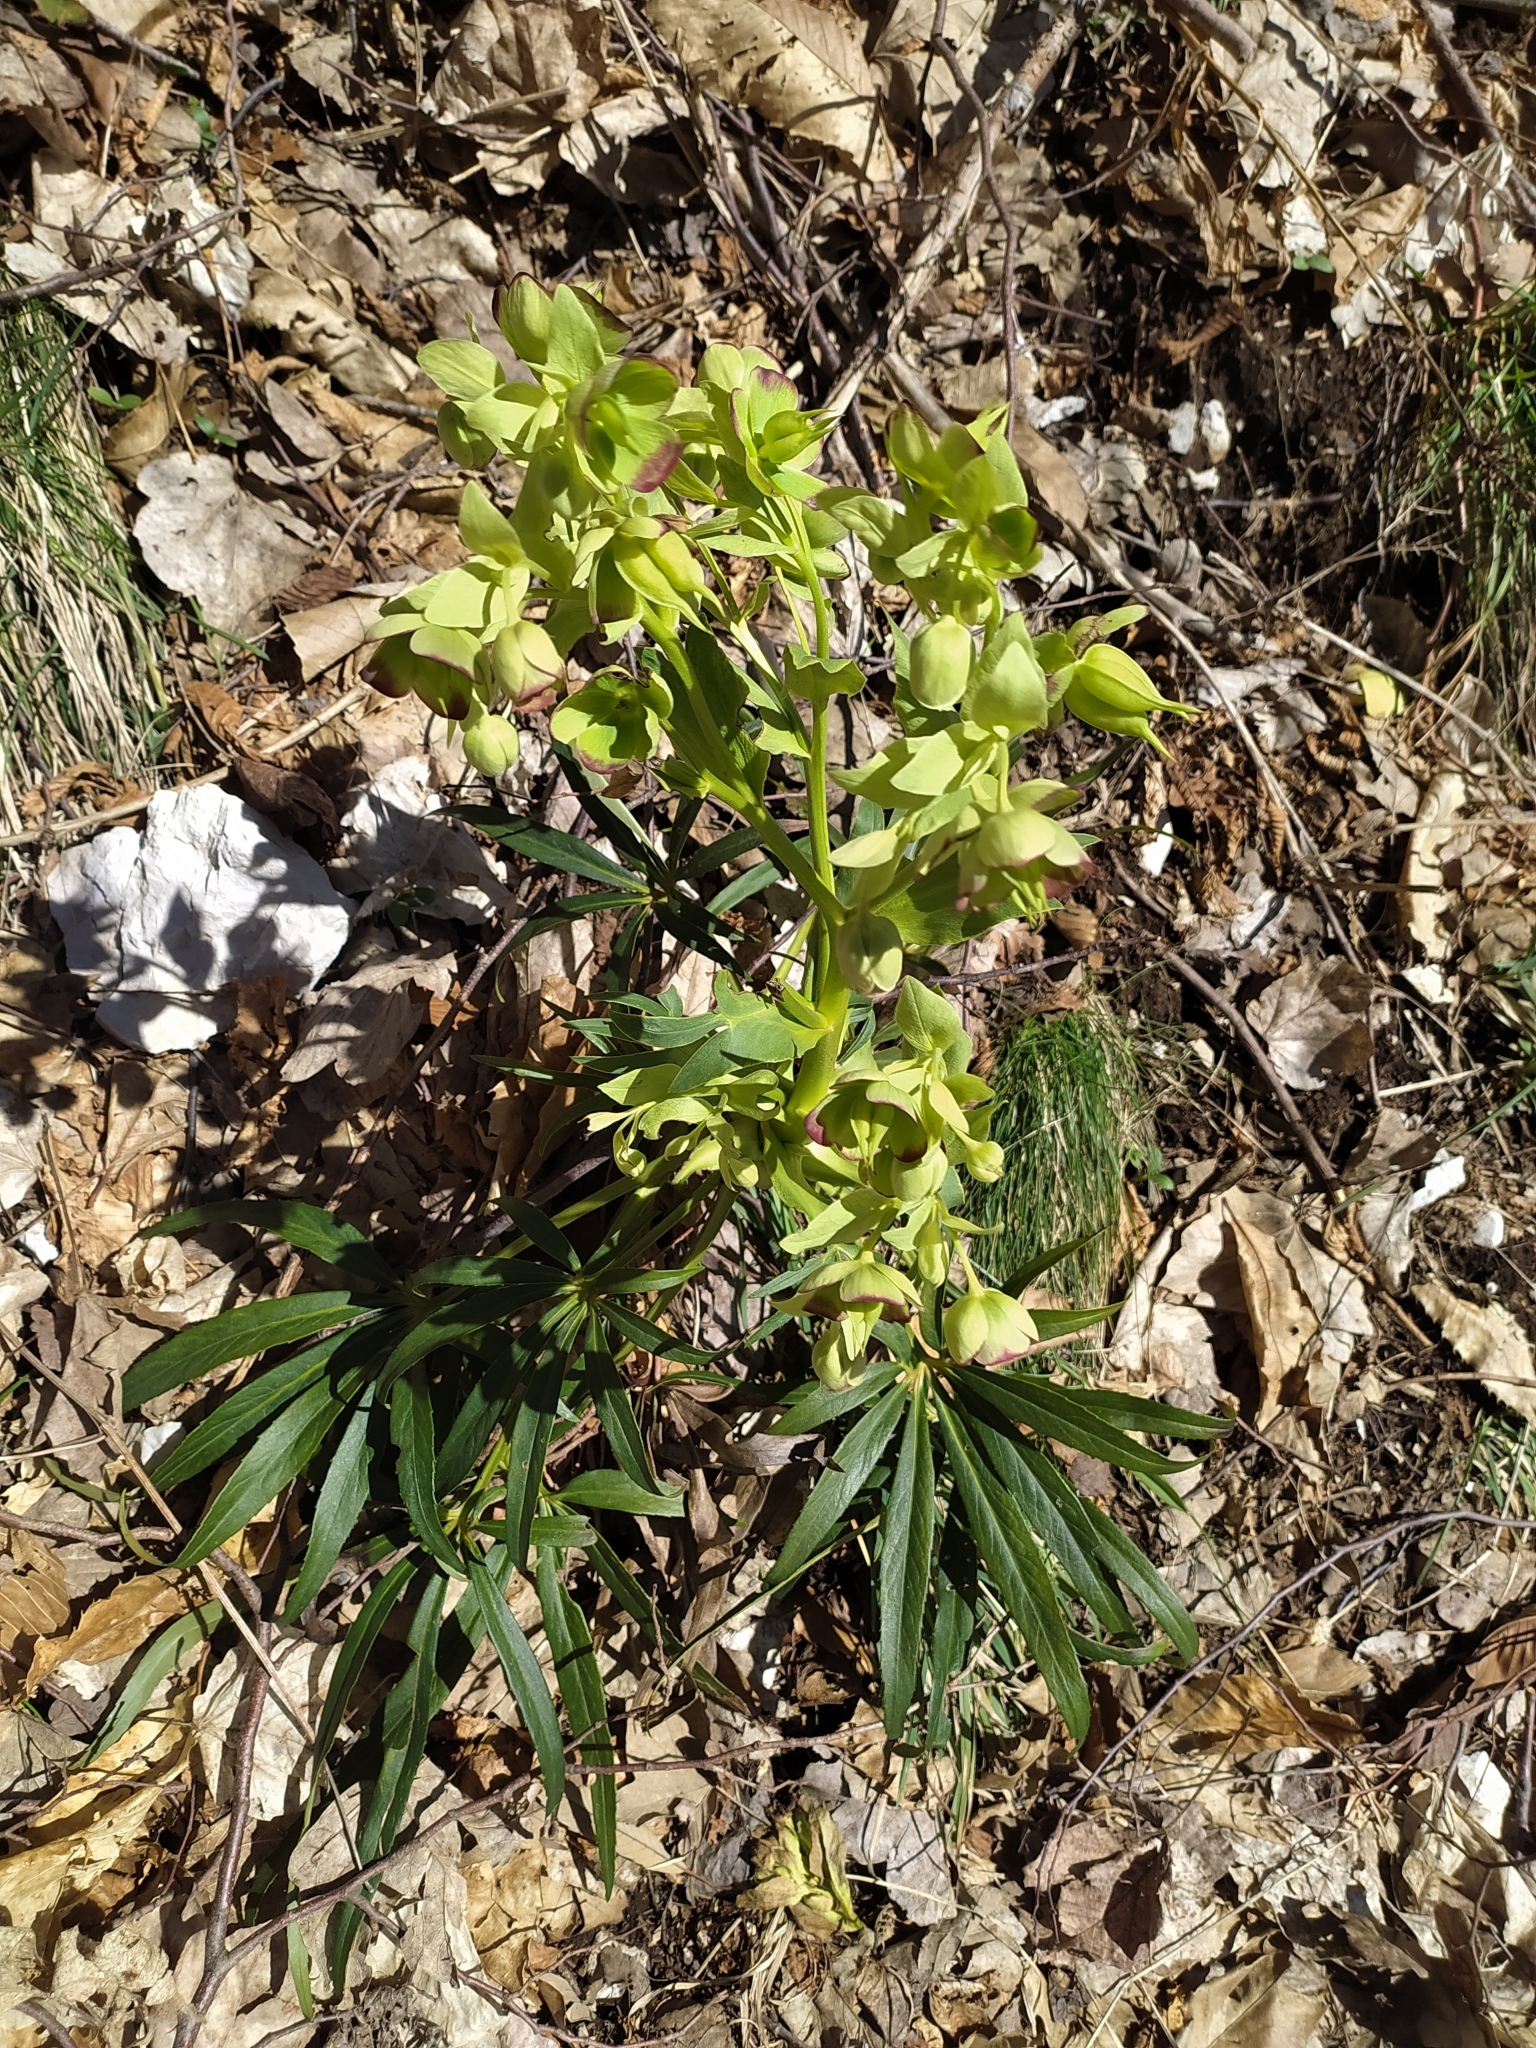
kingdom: Plantae
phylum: Tracheophyta
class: Magnoliopsida
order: Ranunculales
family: Ranunculaceae
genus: Helleborus
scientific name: Helleborus foetidus
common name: Stinking hellebore
